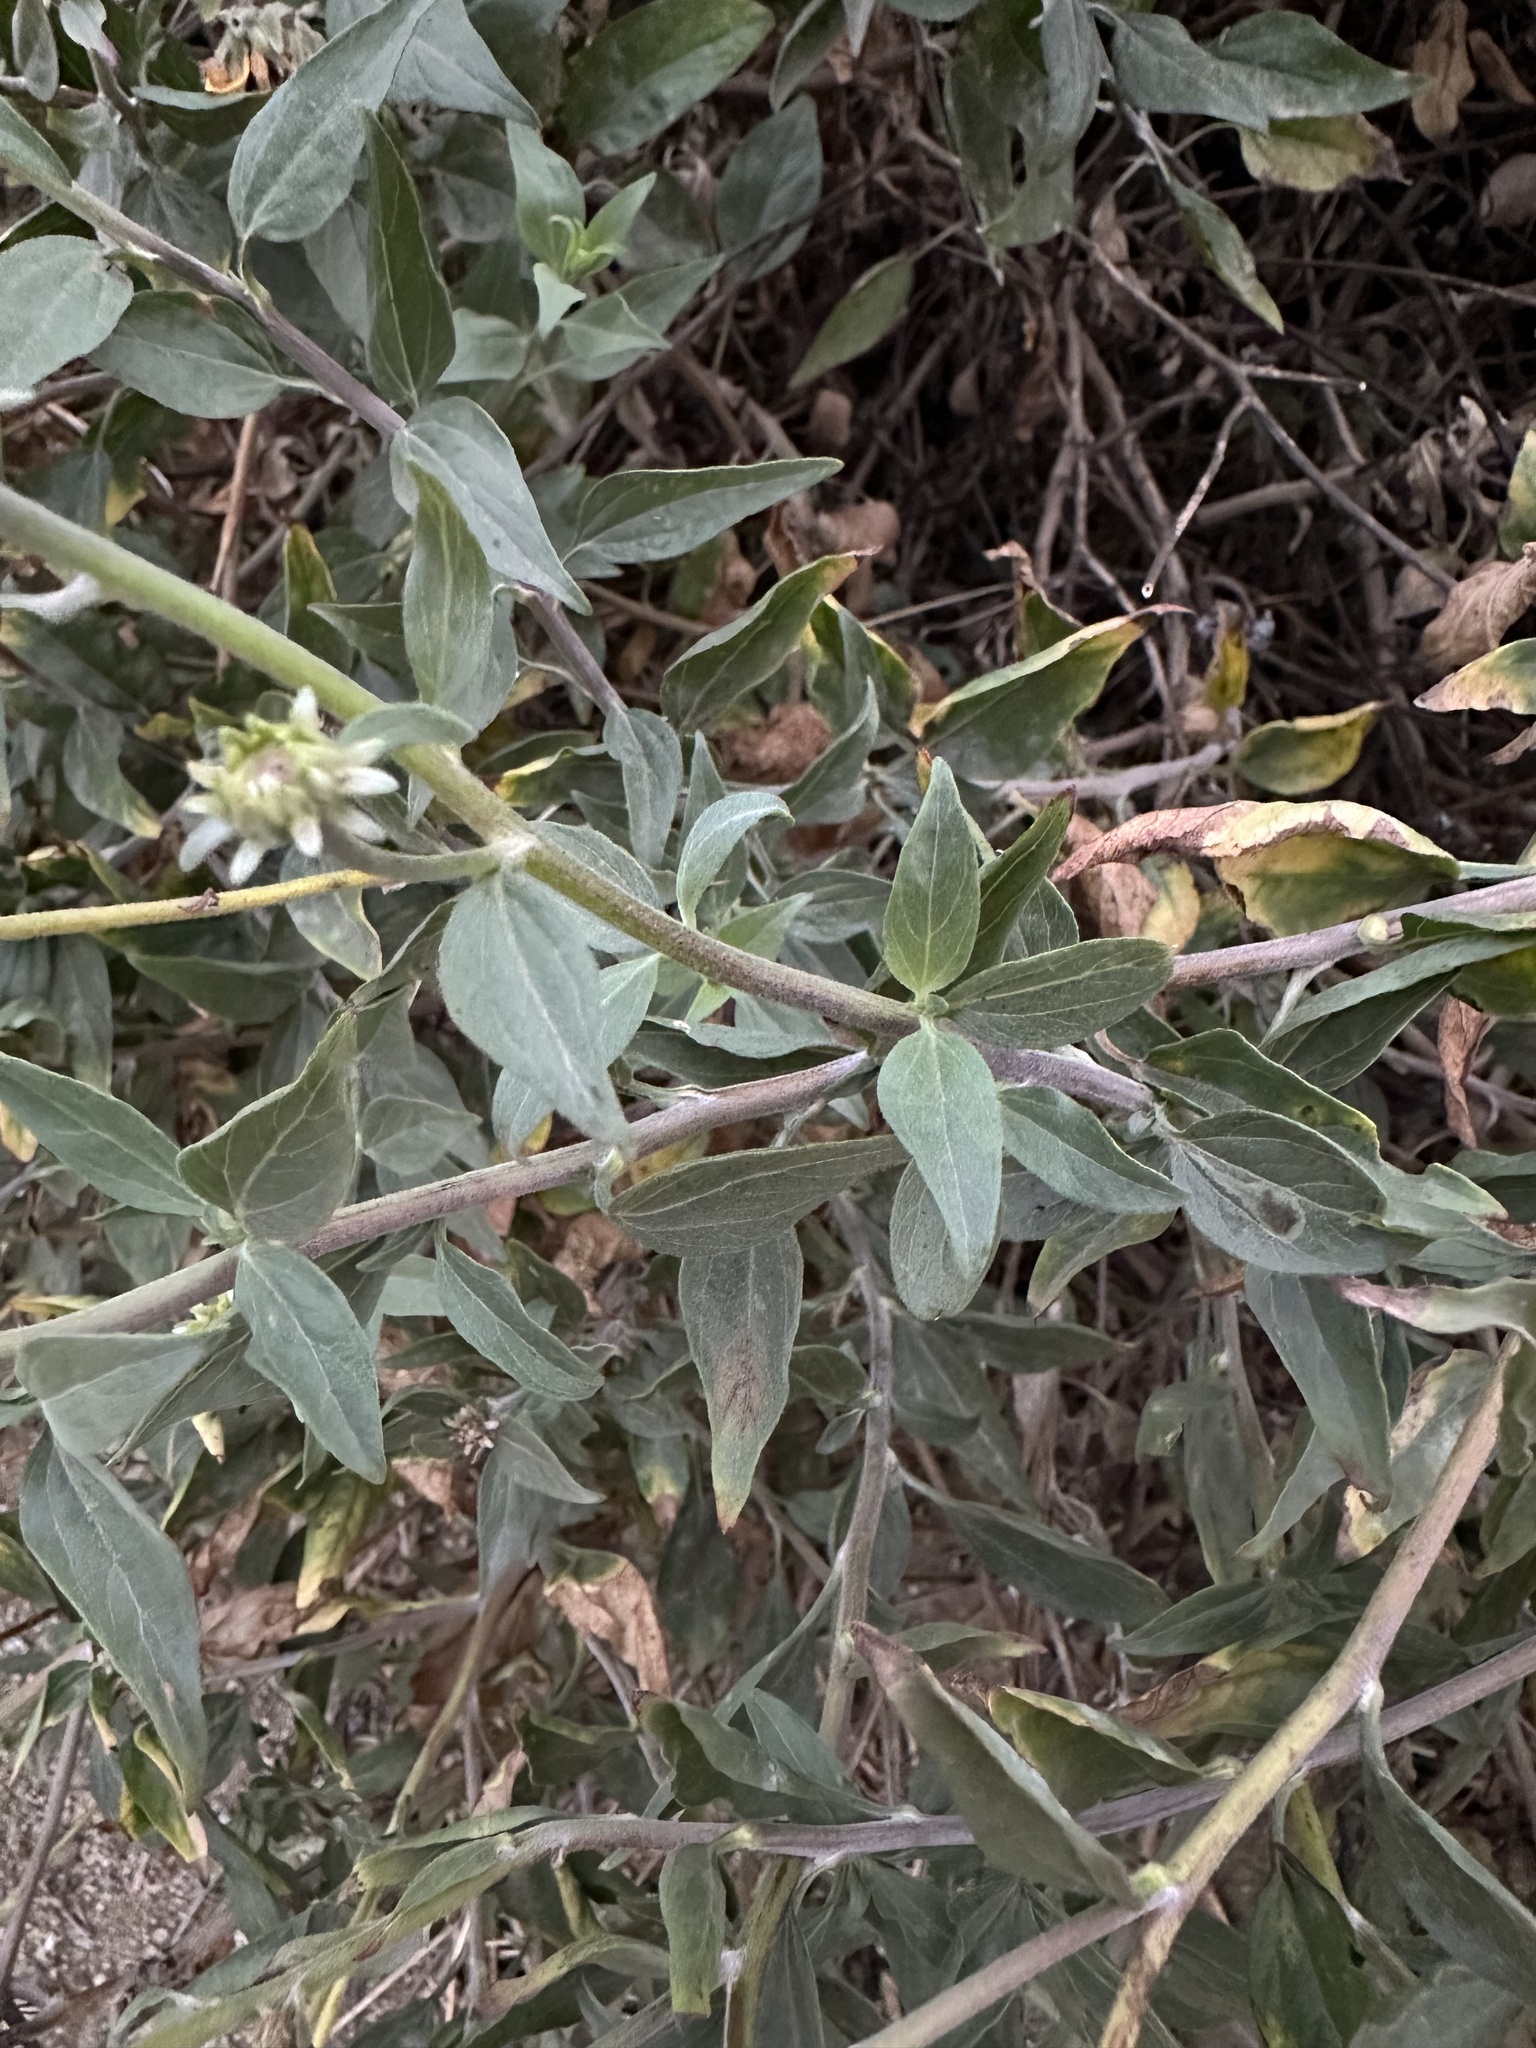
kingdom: Plantae
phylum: Tracheophyta
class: Magnoliopsida
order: Asterales
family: Asteraceae
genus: Encelia
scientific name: Encelia californica
